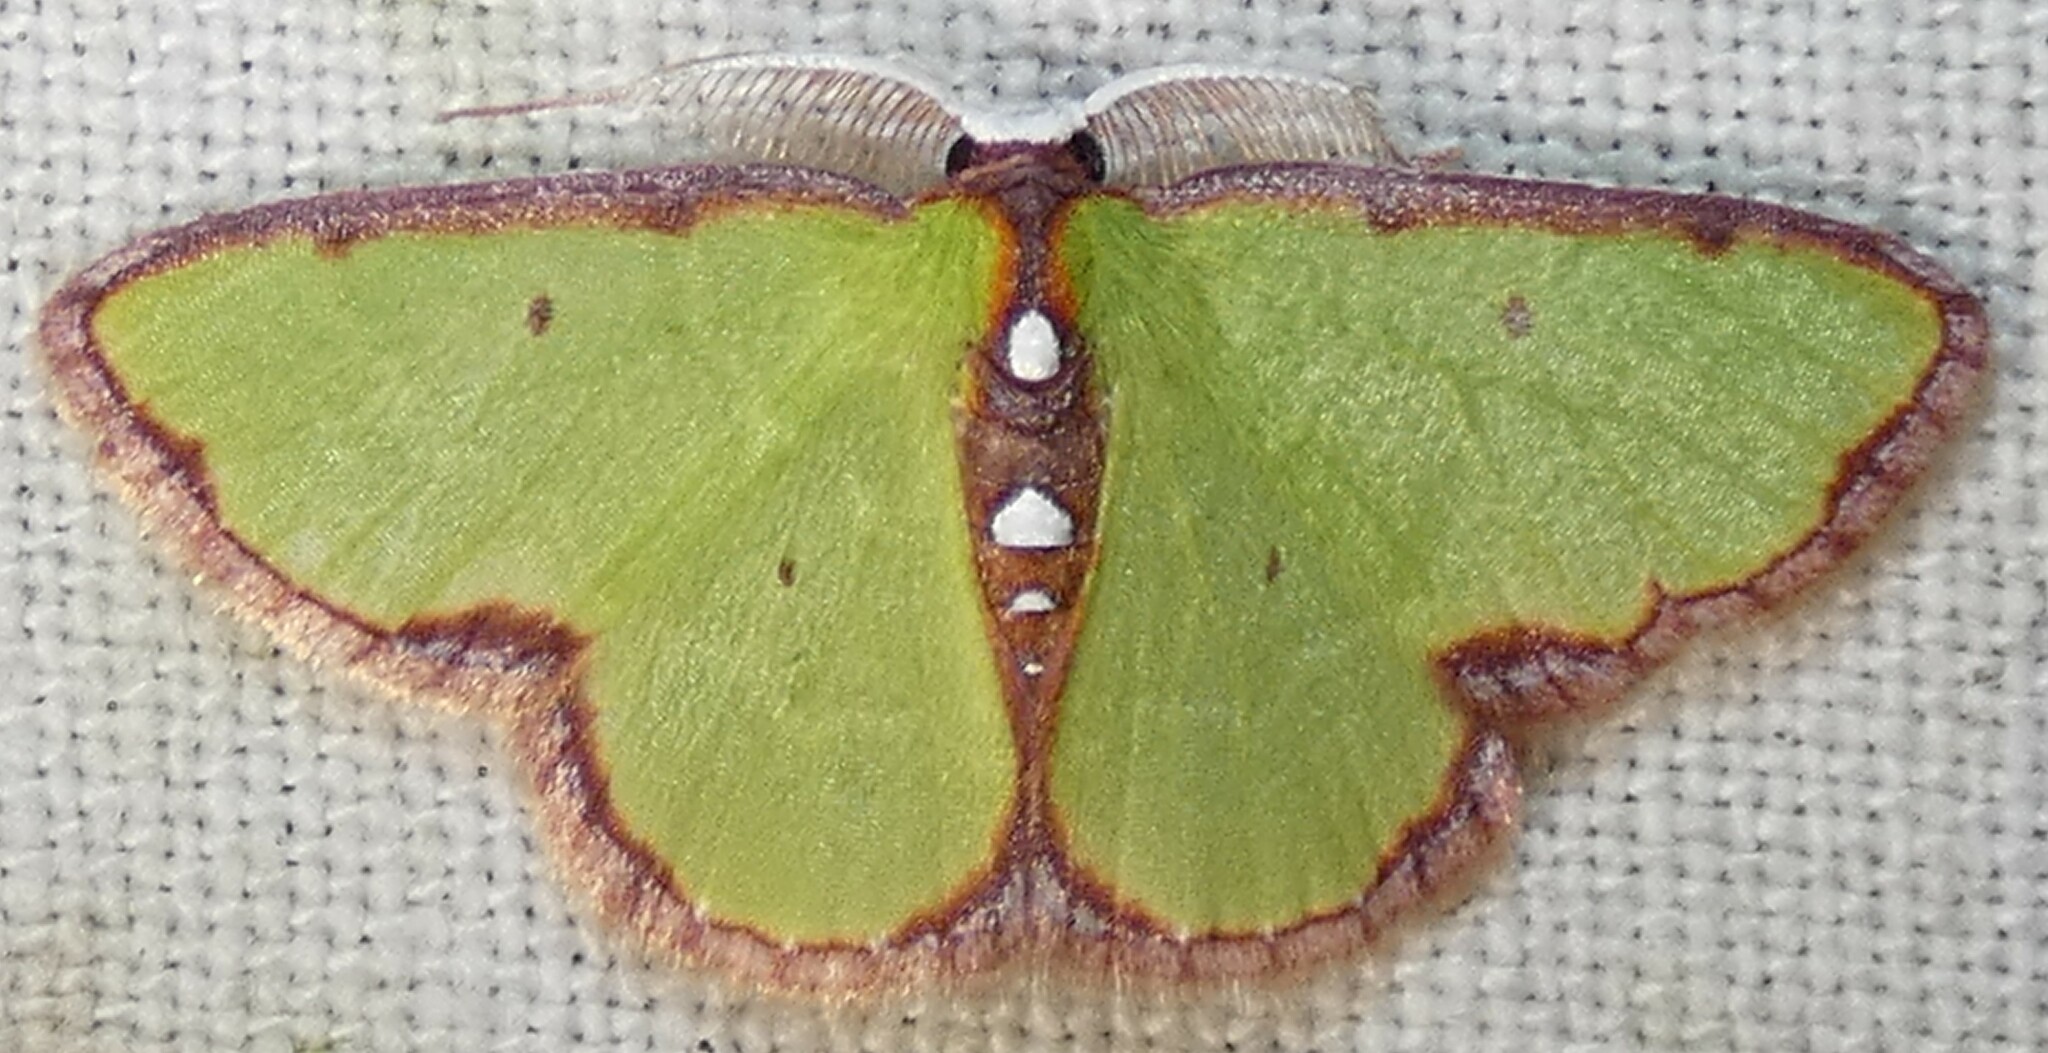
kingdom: Animalia
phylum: Arthropoda
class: Insecta
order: Lepidoptera
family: Geometridae
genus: Synchlora
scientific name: Synchlora cupedinaria
